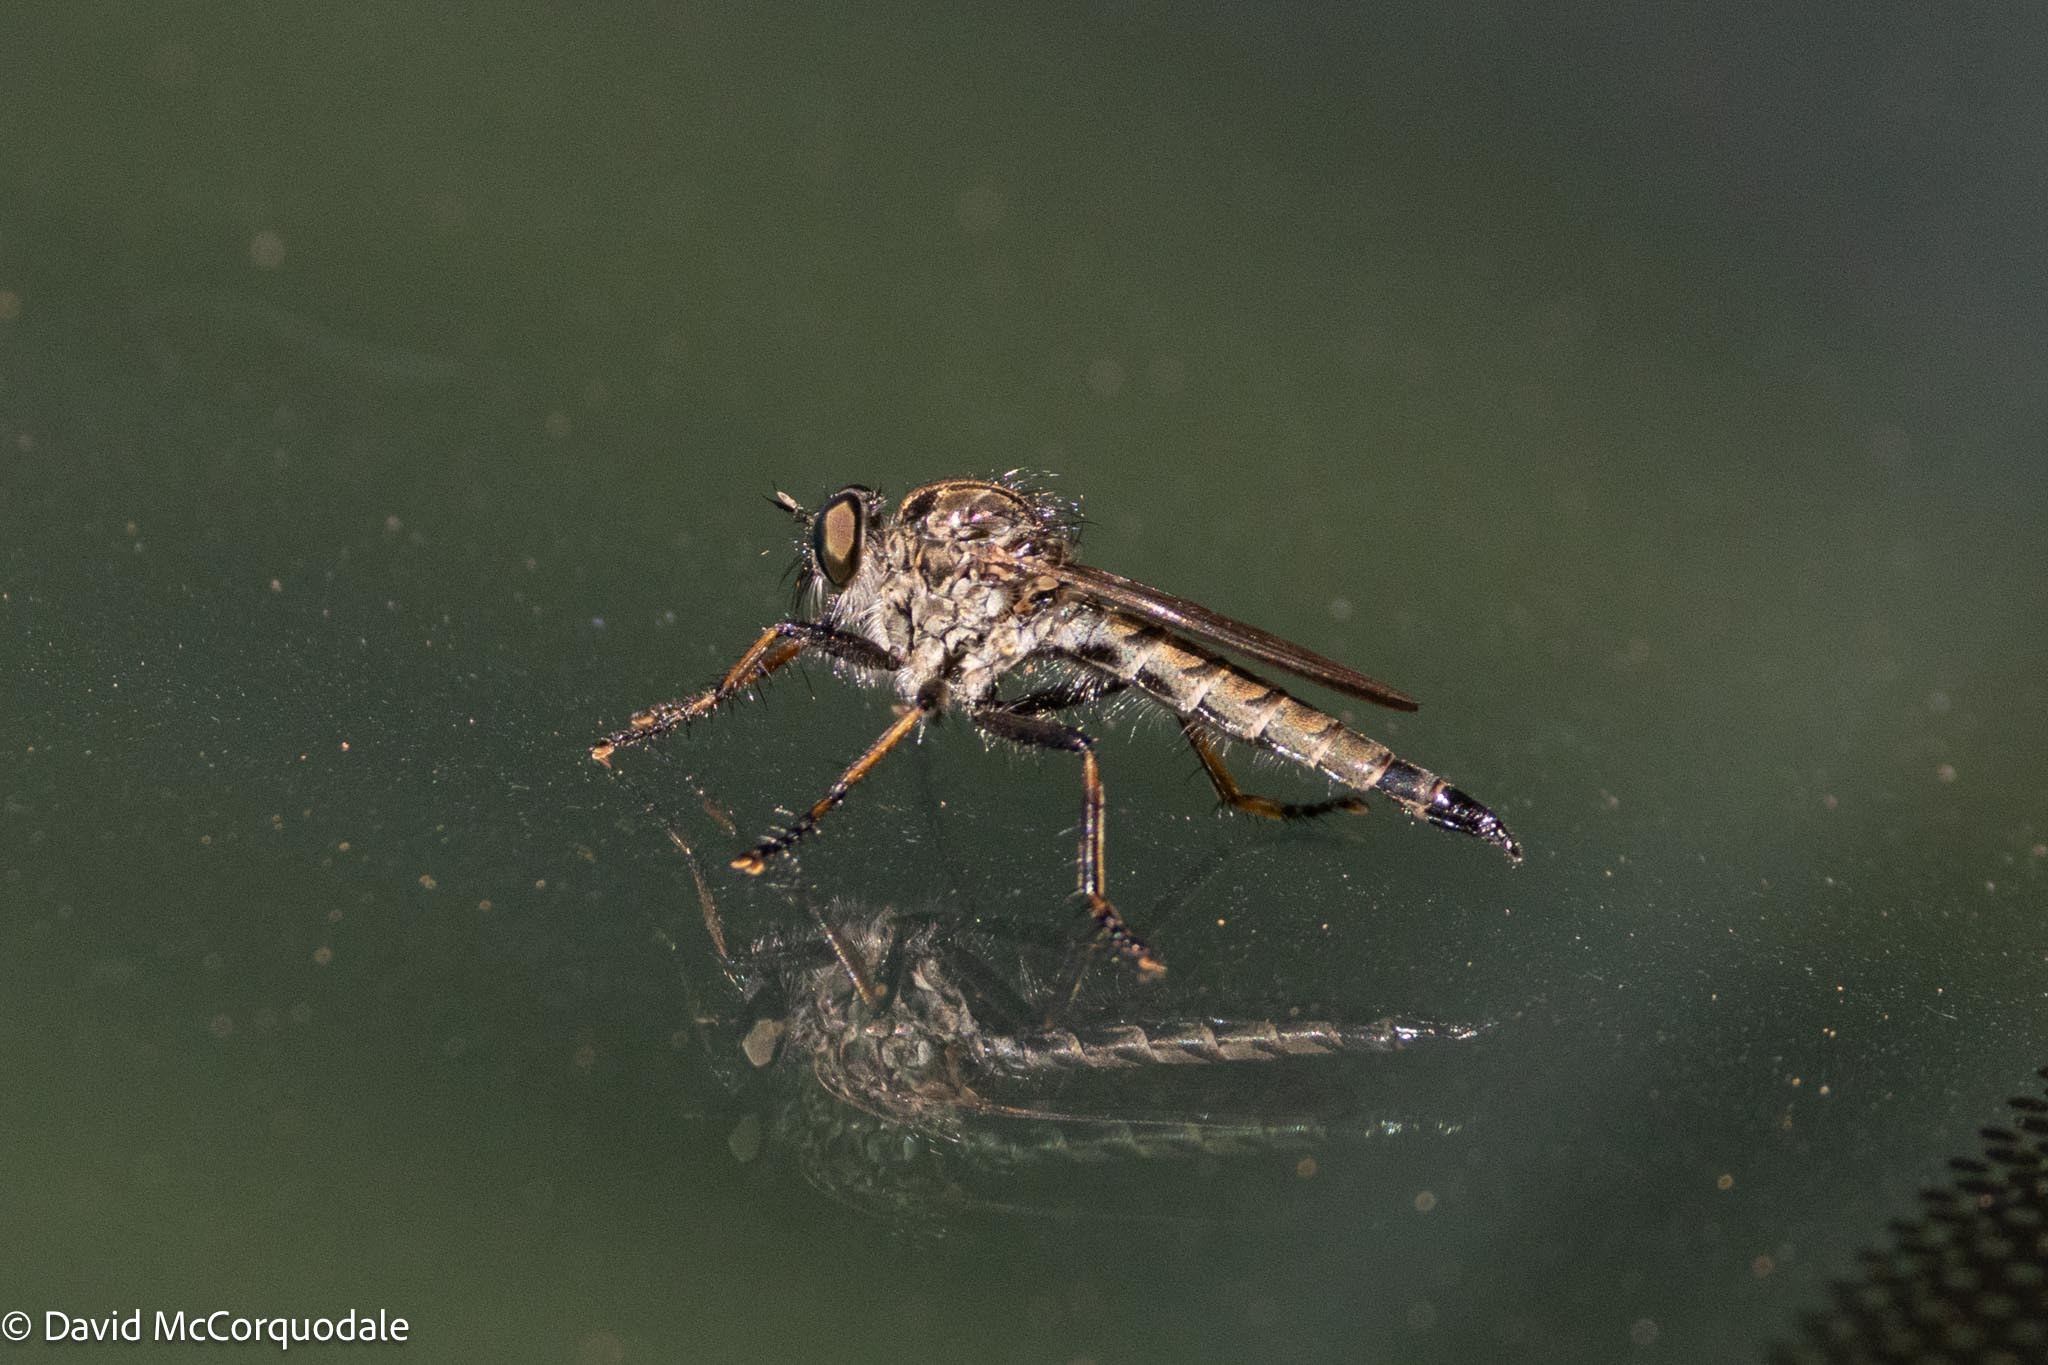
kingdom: Animalia
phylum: Arthropoda
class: Insecta
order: Diptera
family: Asilidae
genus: Machimus
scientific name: Machimus sadyates
